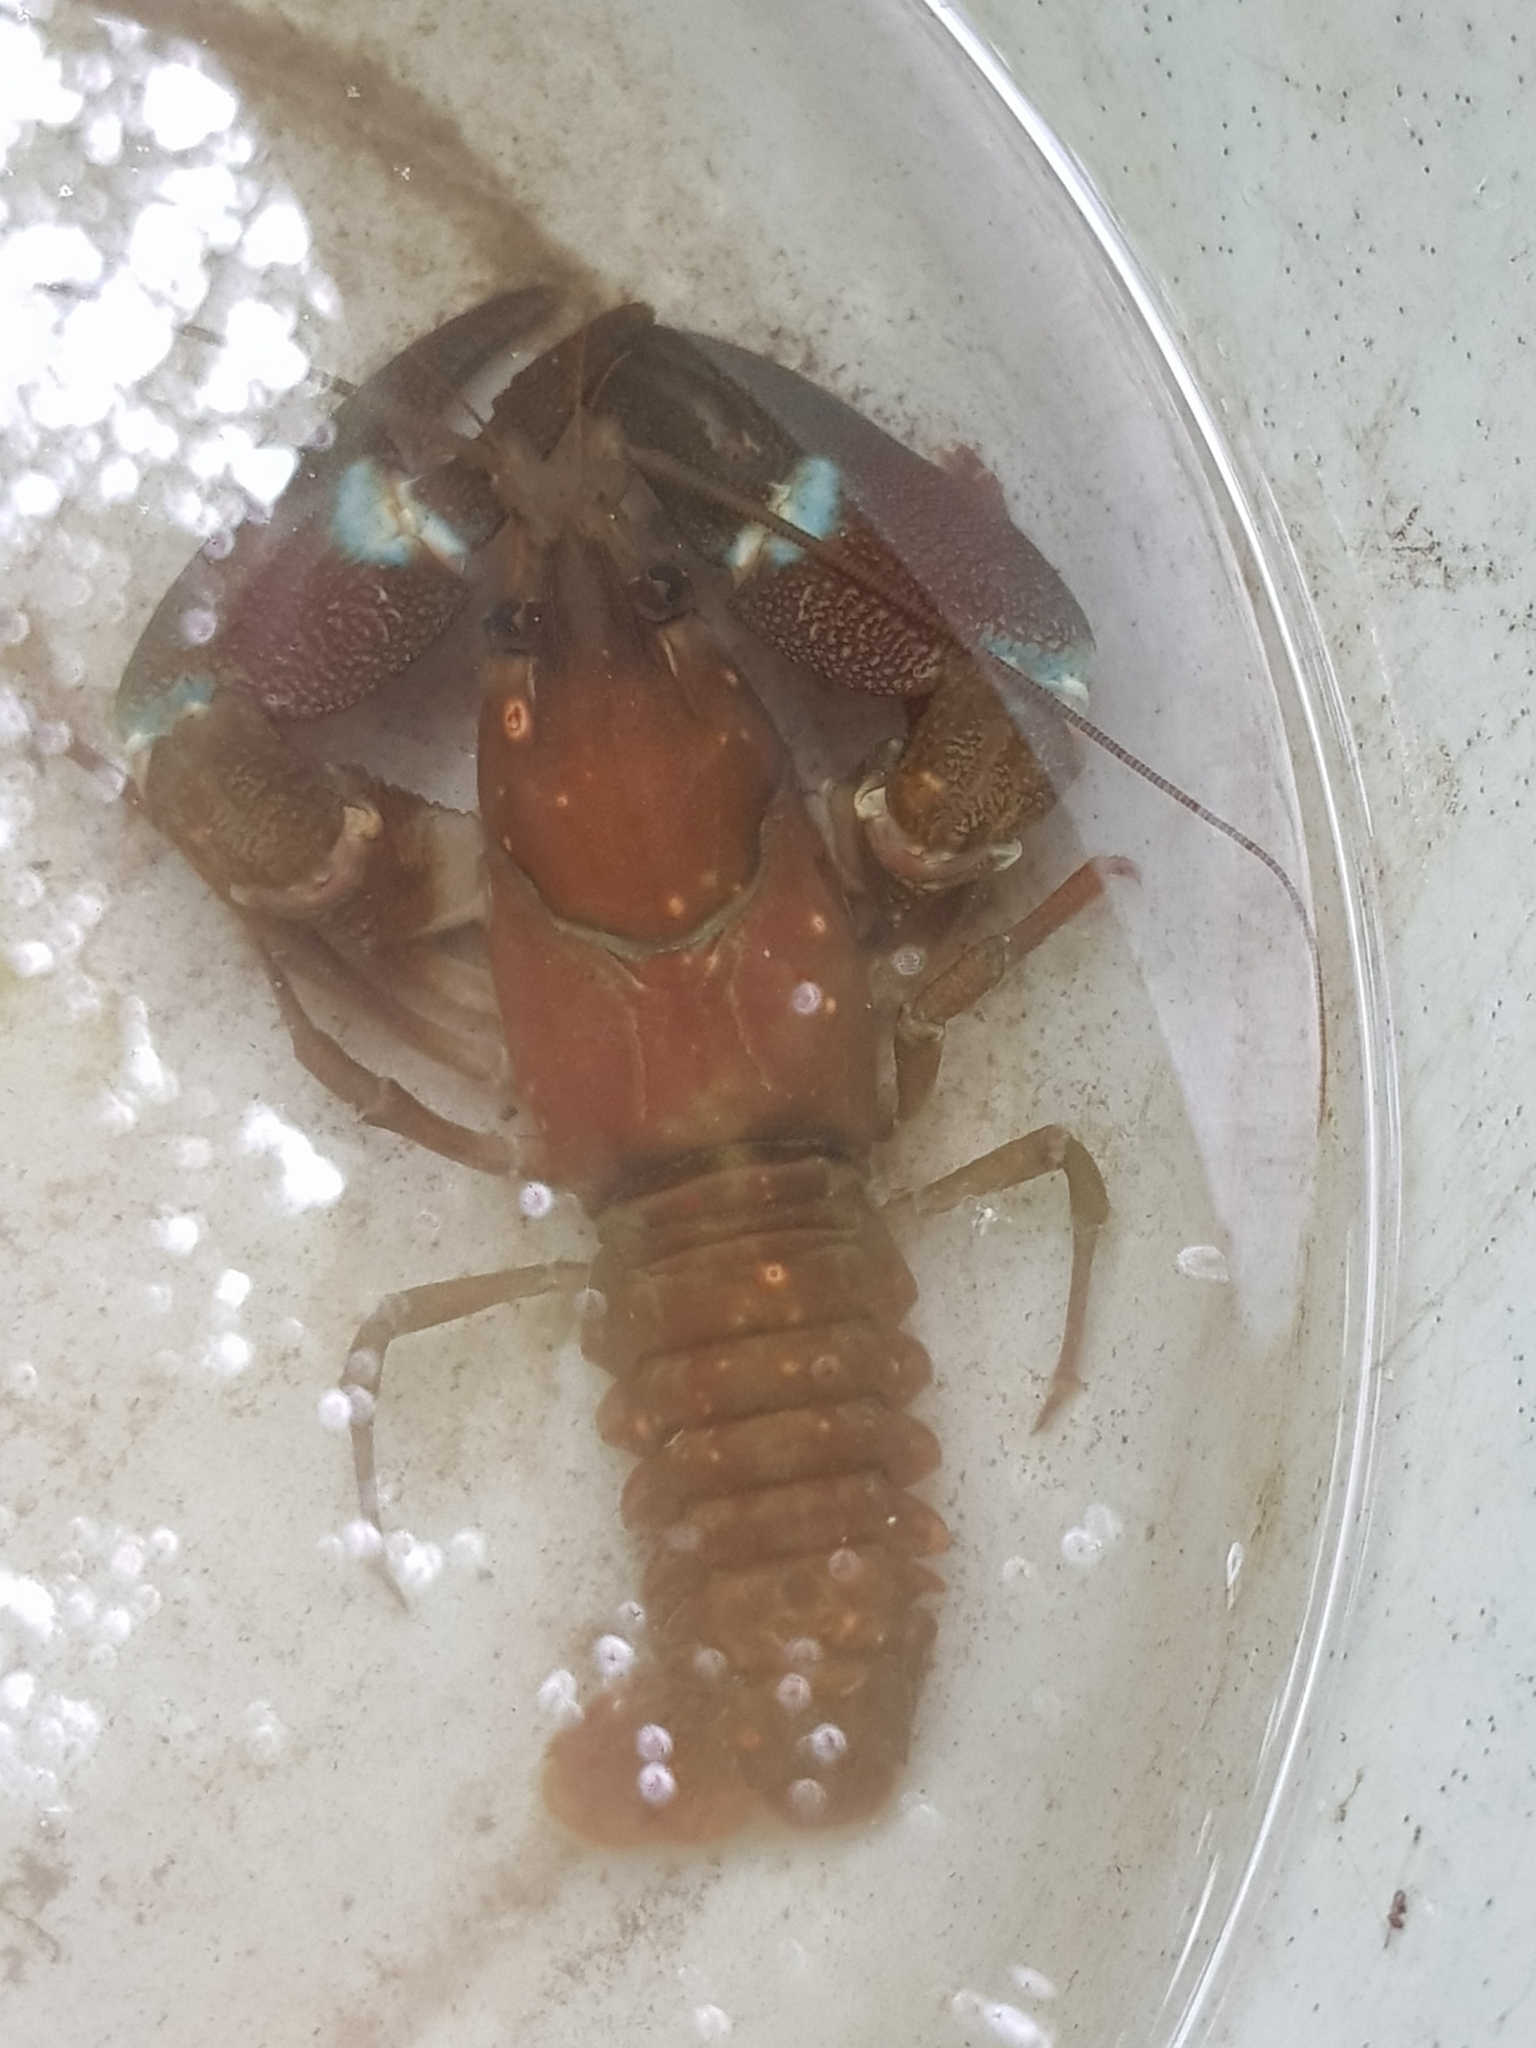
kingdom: Animalia
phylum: Arthropoda
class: Malacostraca
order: Decapoda
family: Astacidae
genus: Pacifastacus
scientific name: Pacifastacus leniusculus
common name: Signal crayfish
